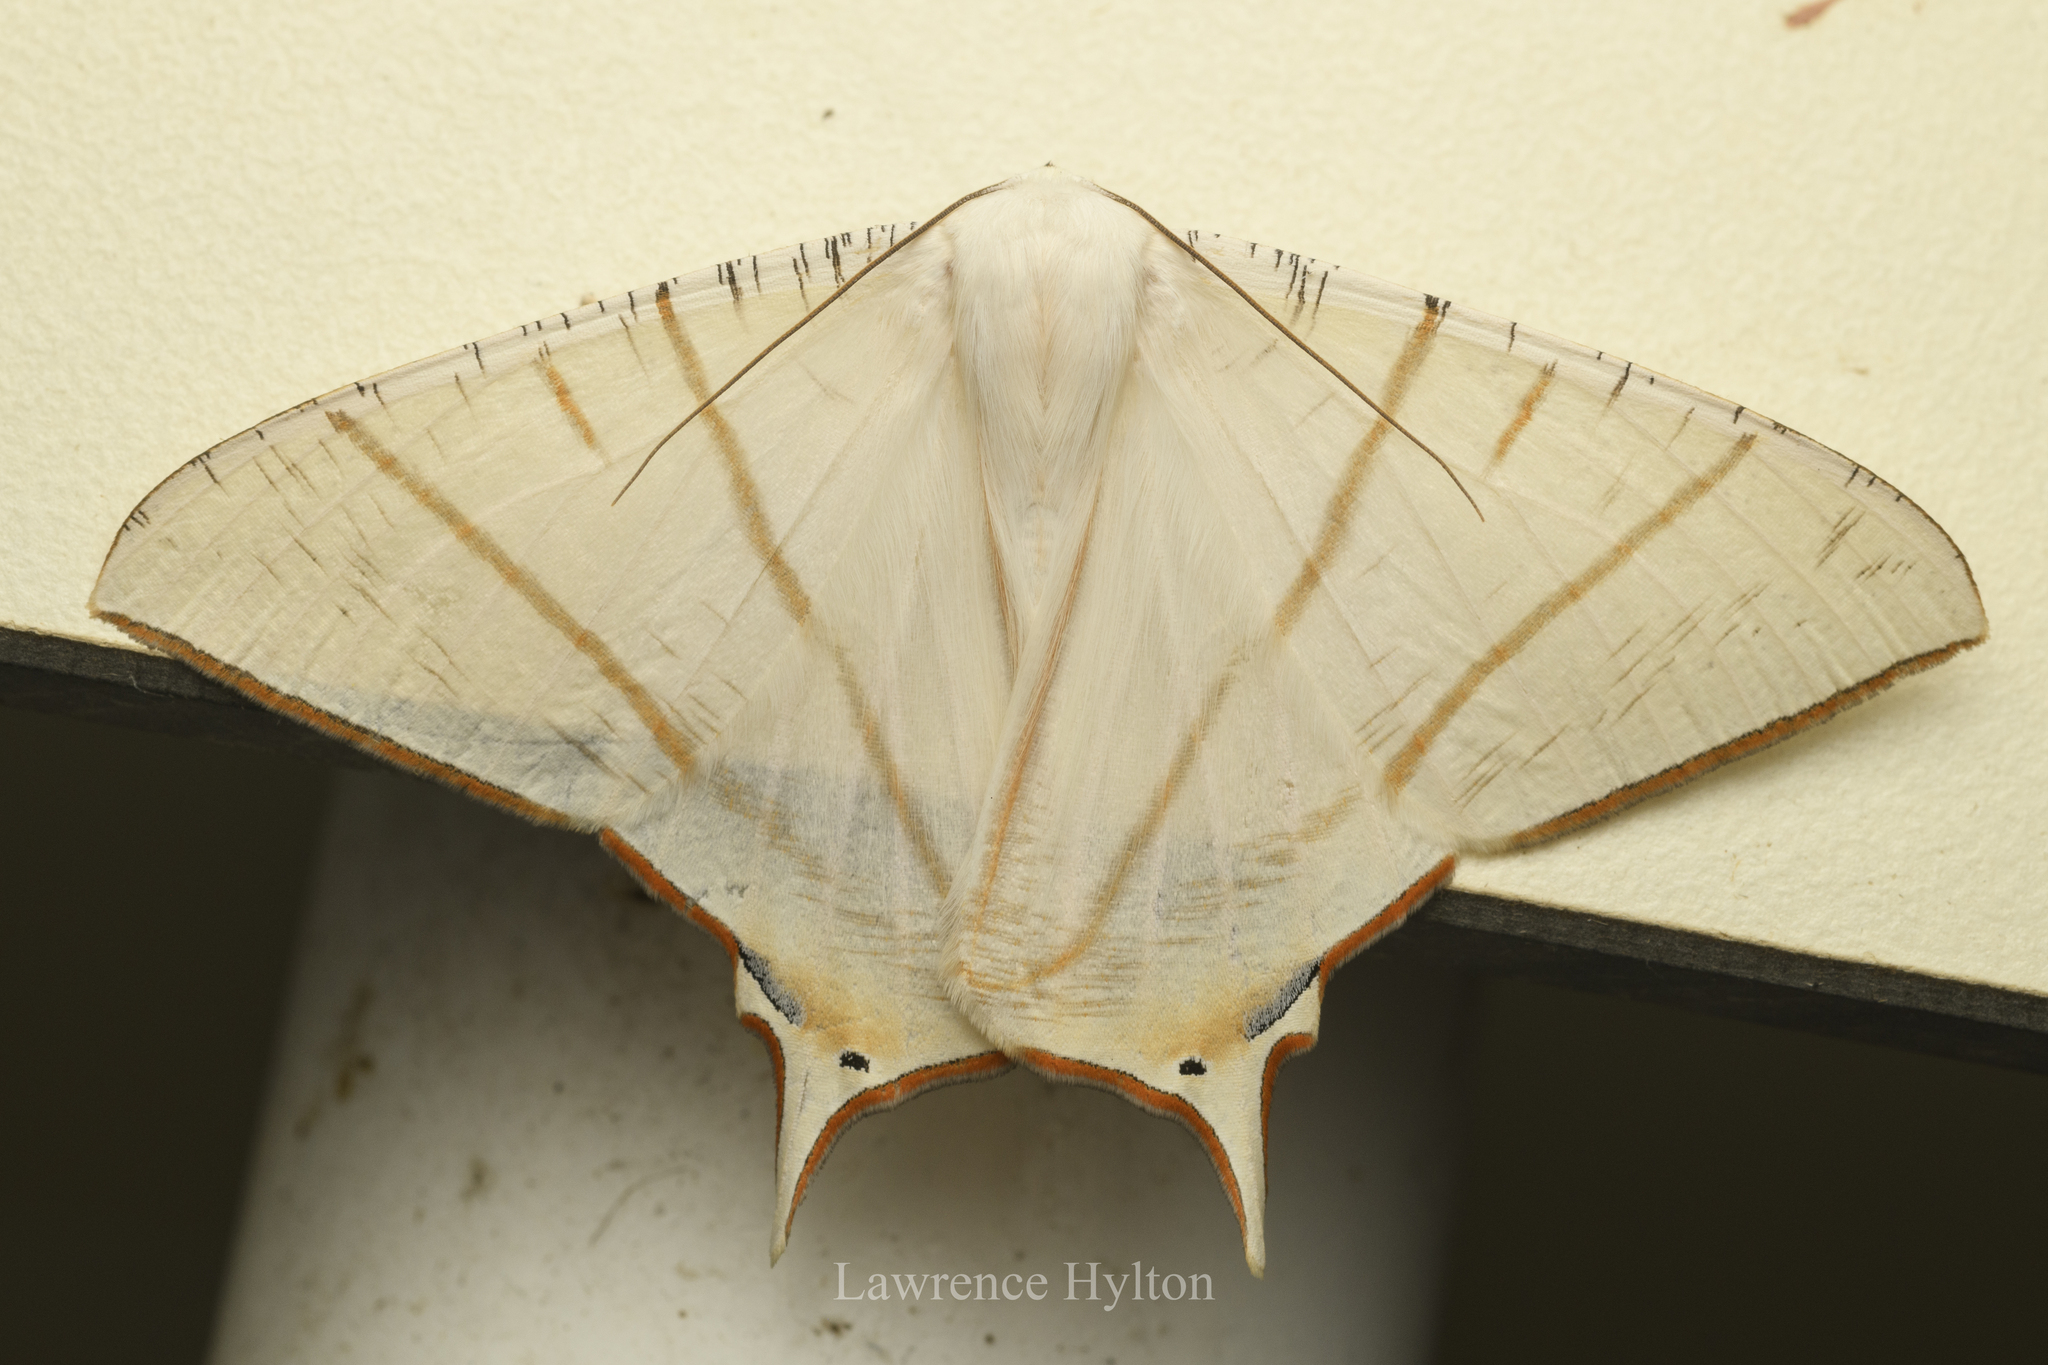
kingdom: Animalia
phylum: Arthropoda
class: Insecta
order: Lepidoptera
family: Geometridae
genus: Ourapteryx
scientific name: Ourapteryx clara
